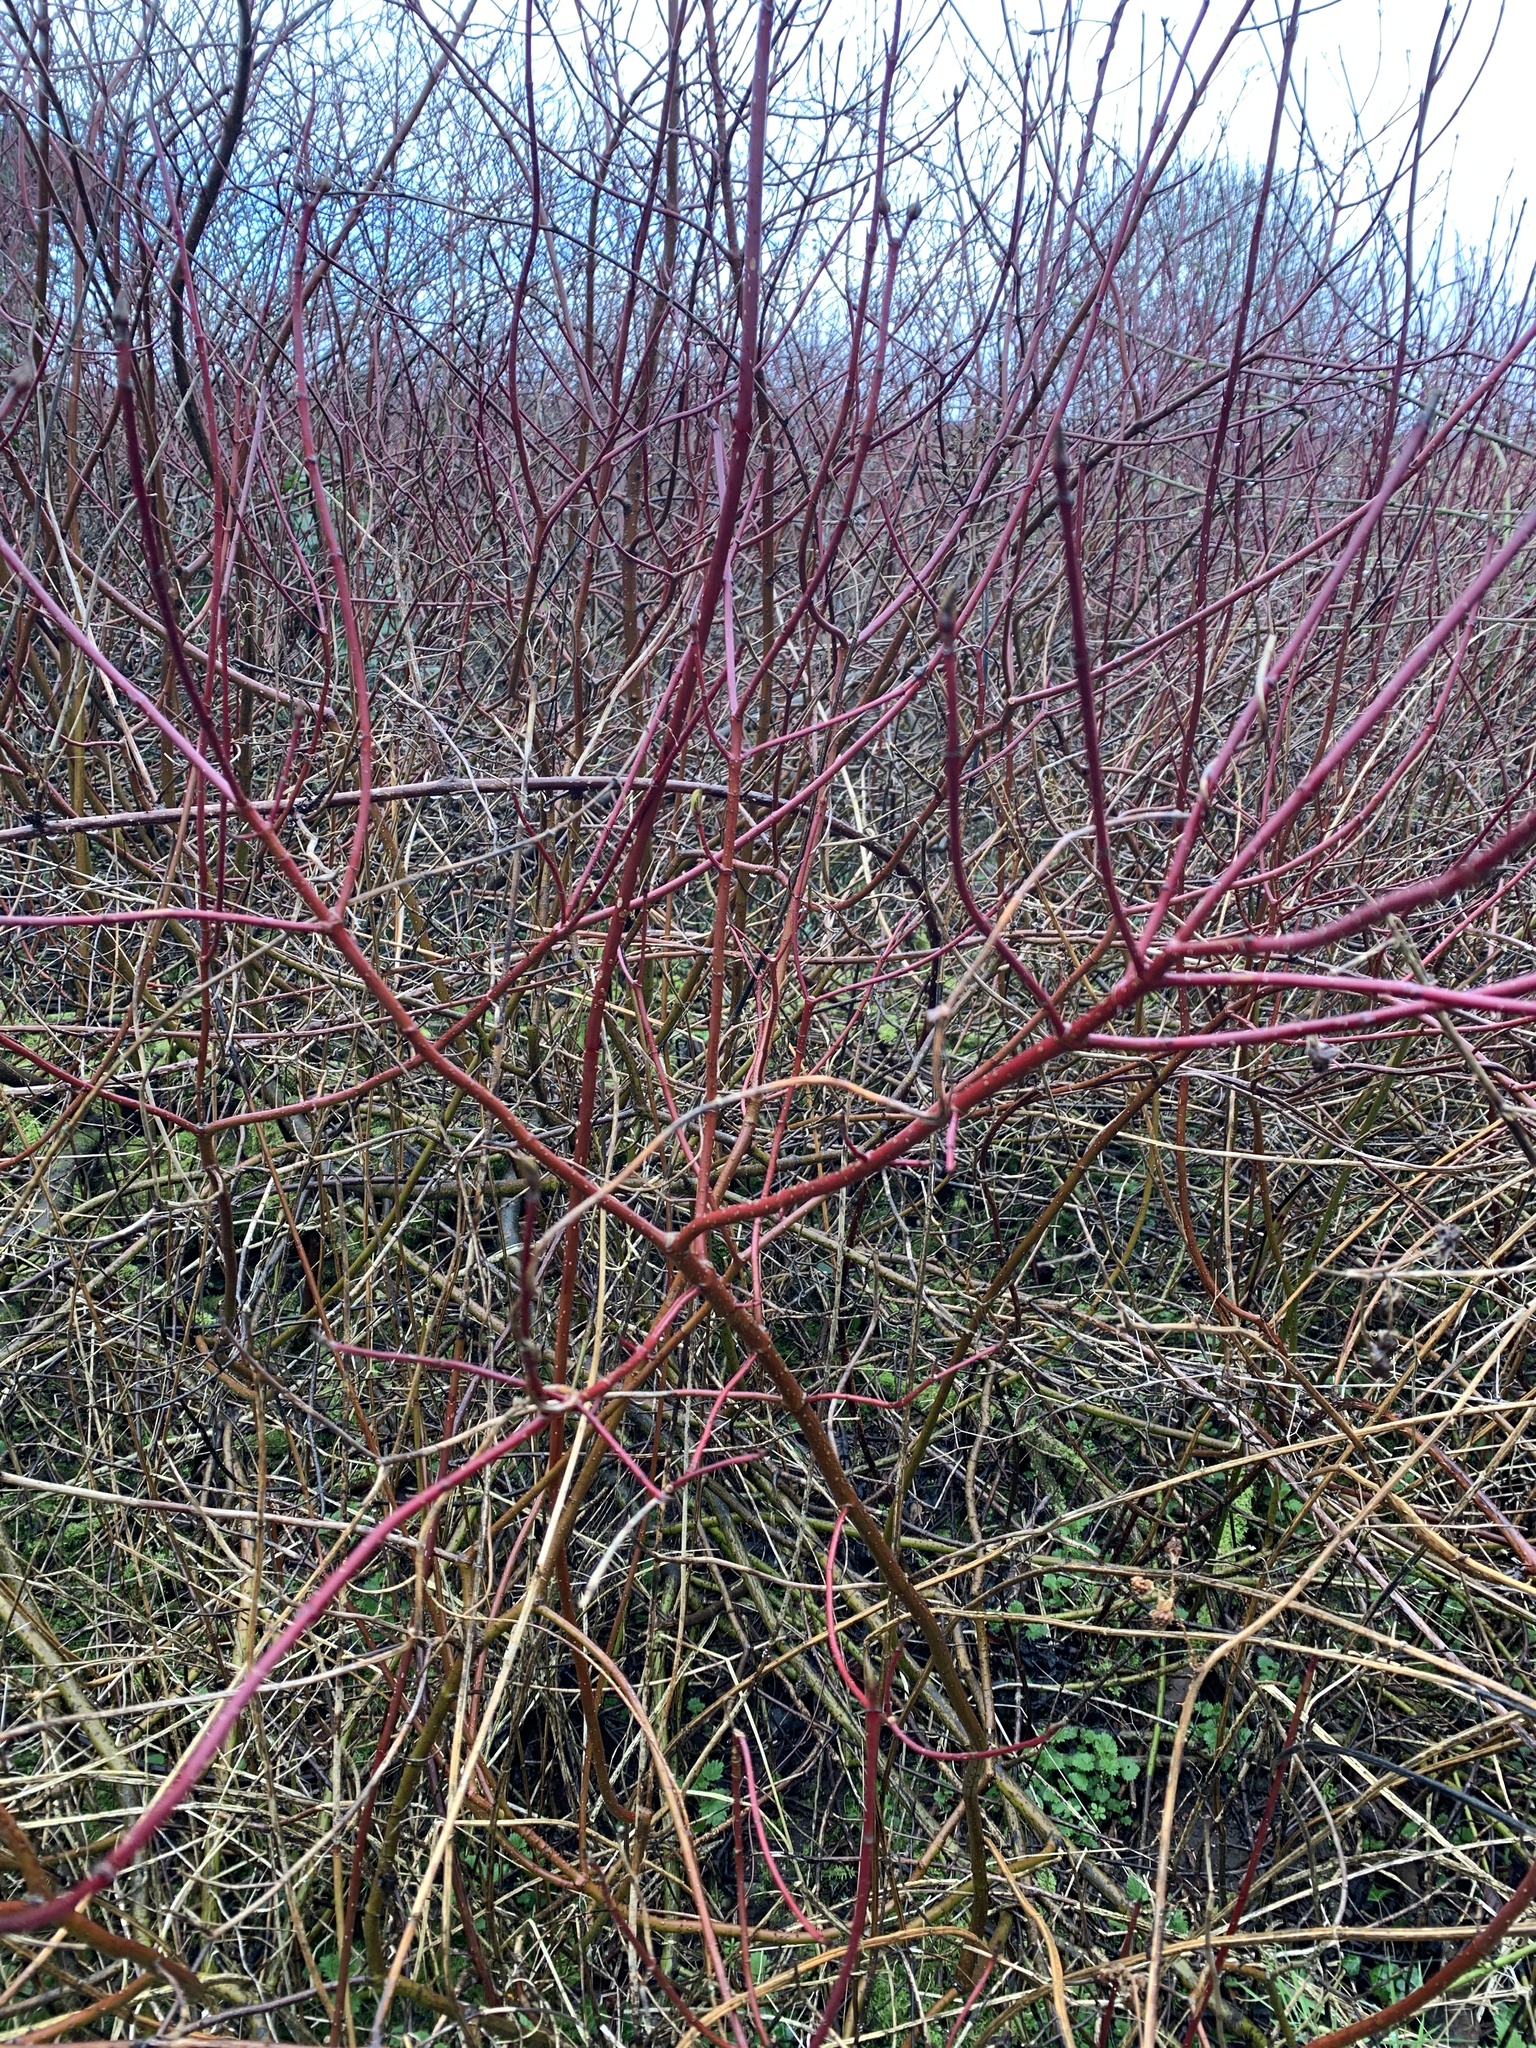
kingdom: Plantae
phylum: Tracheophyta
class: Magnoliopsida
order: Cornales
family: Cornaceae
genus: Cornus
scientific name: Cornus sericea
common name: Red-osier dogwood
